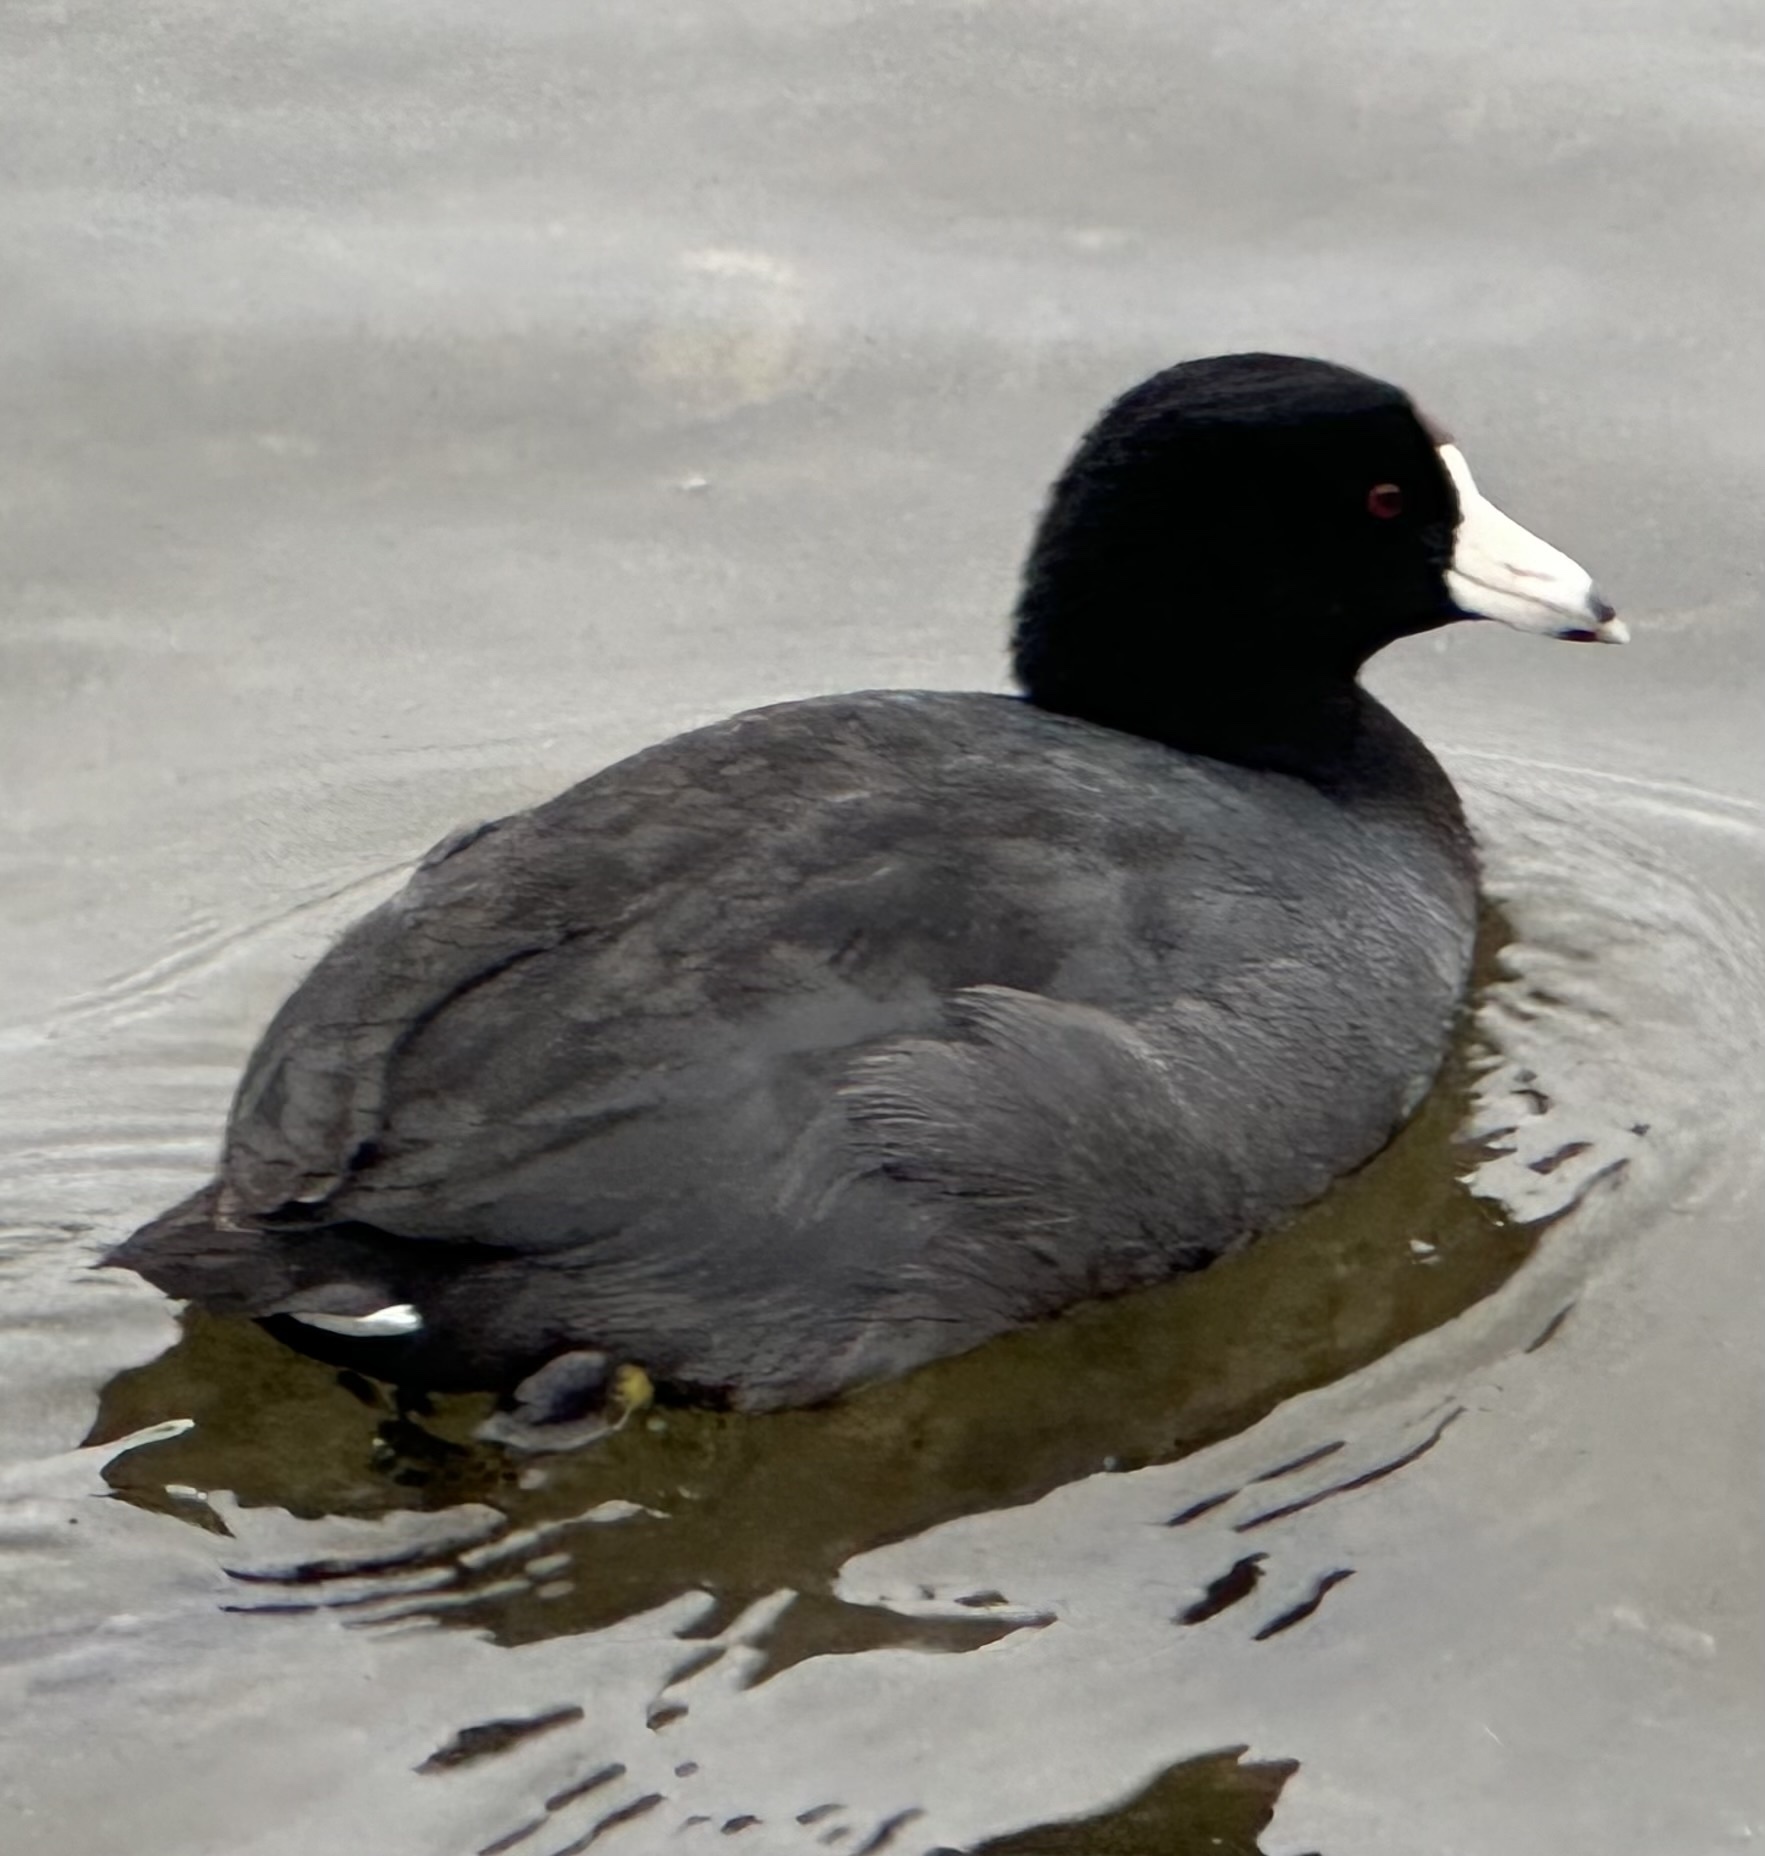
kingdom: Animalia
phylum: Chordata
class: Aves
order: Gruiformes
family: Rallidae
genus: Fulica
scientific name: Fulica americana
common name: American coot
